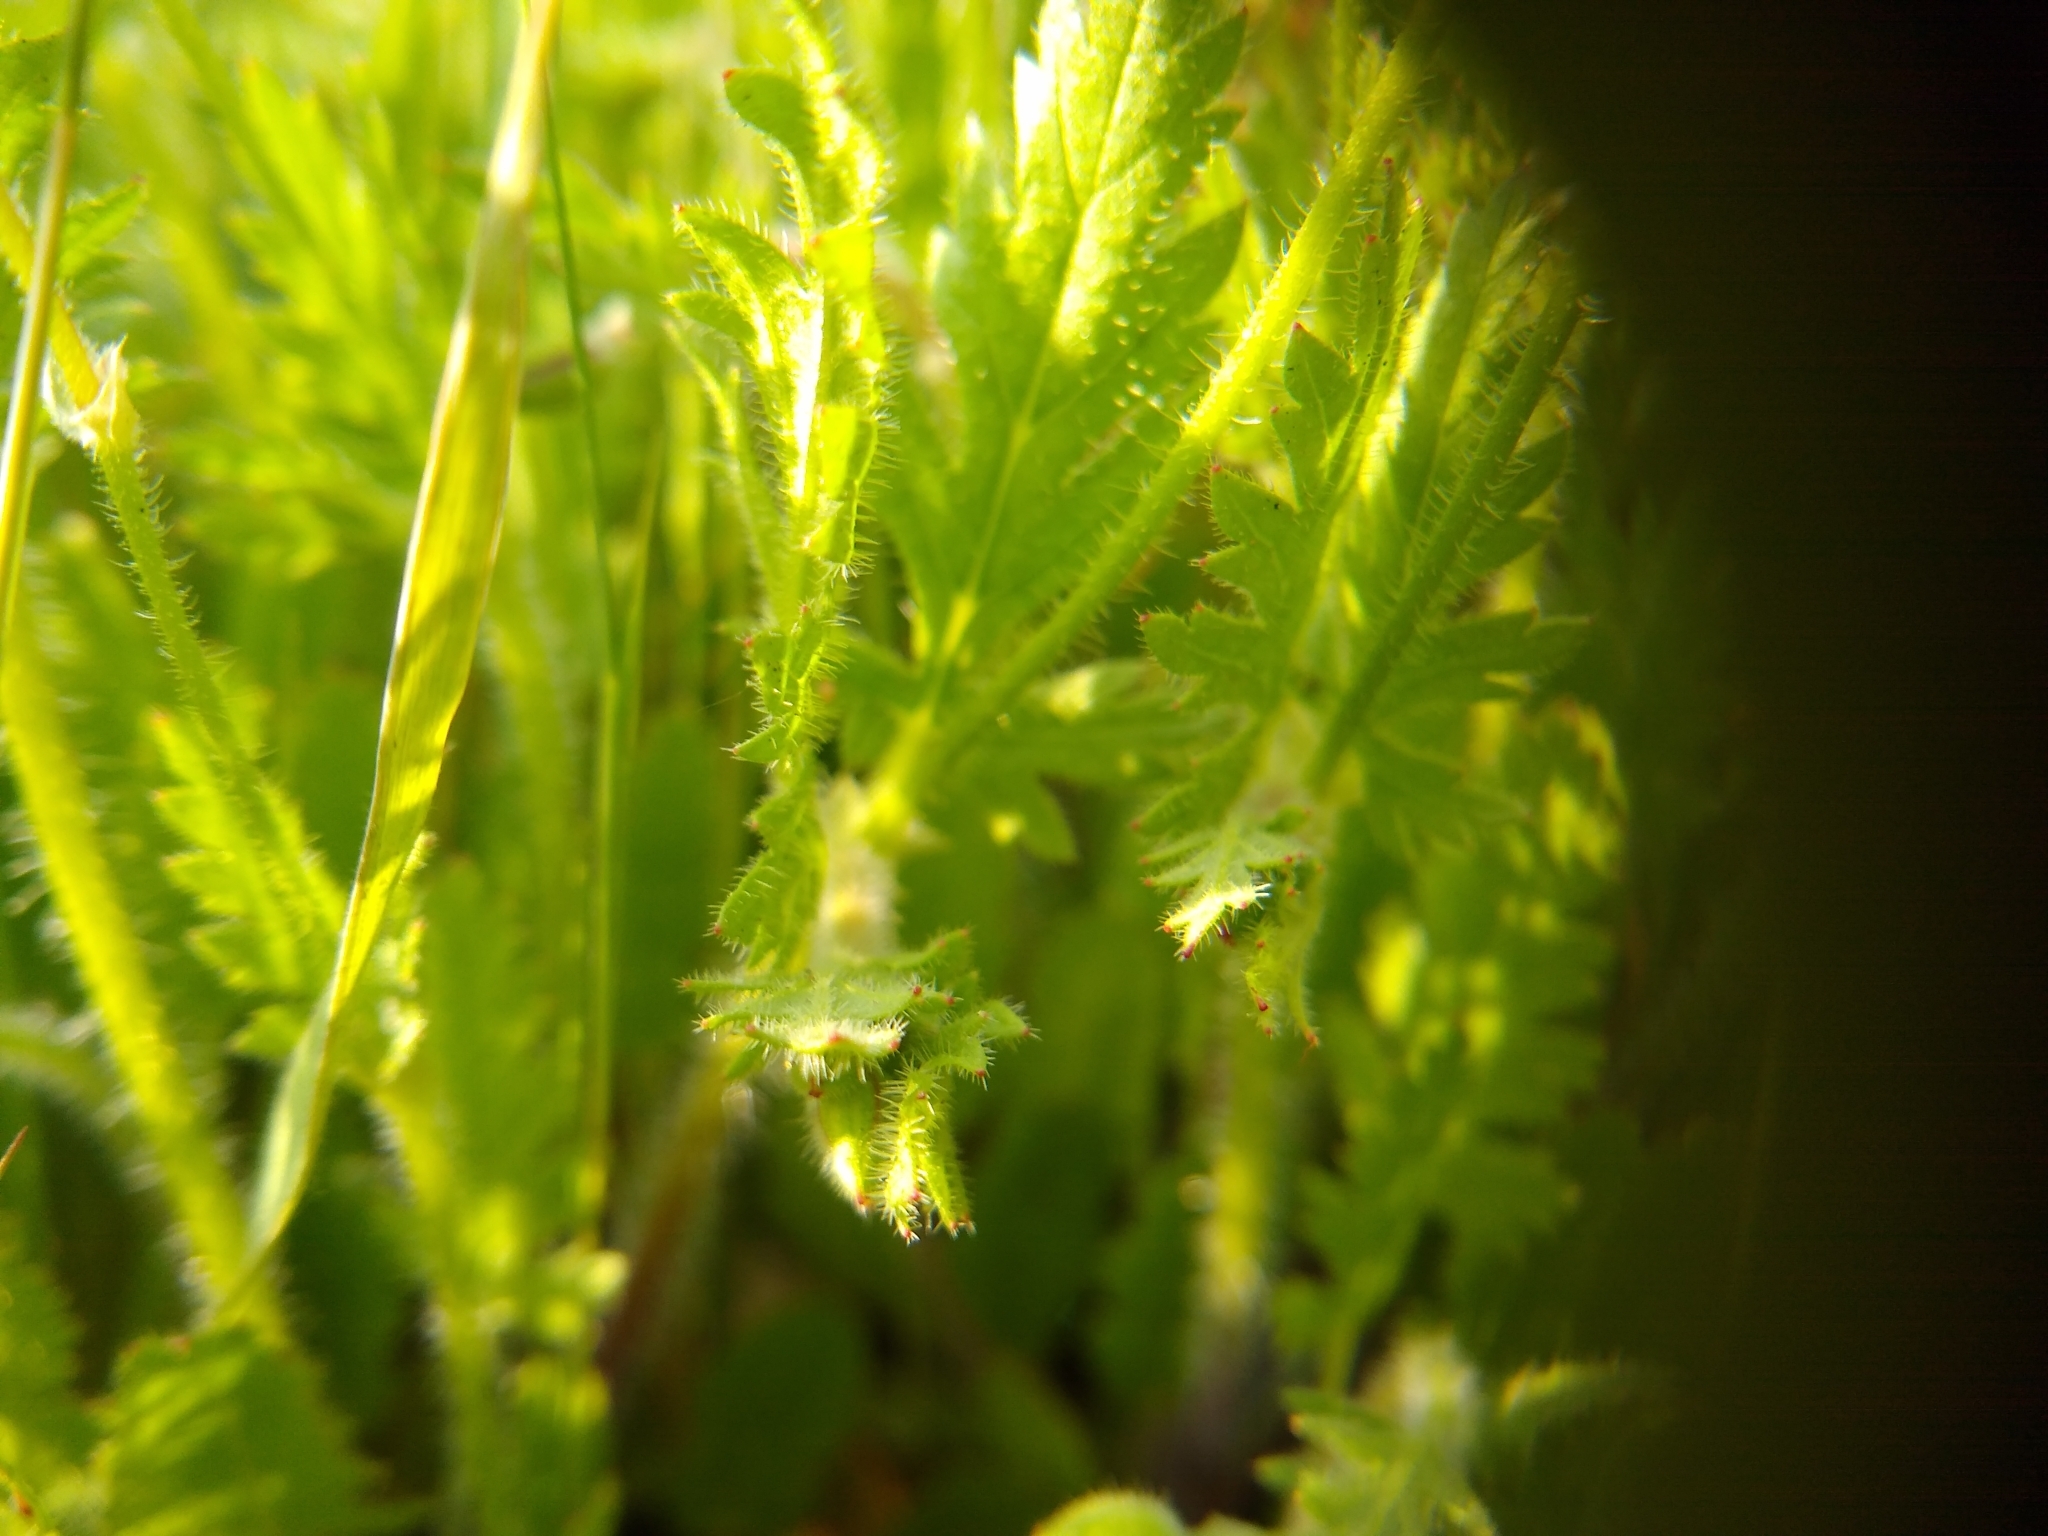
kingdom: Plantae
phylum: Tracheophyta
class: Magnoliopsida
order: Geraniales
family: Geraniaceae
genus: Erodium
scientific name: Erodium botrys
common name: Mediterranean stork's-bill
